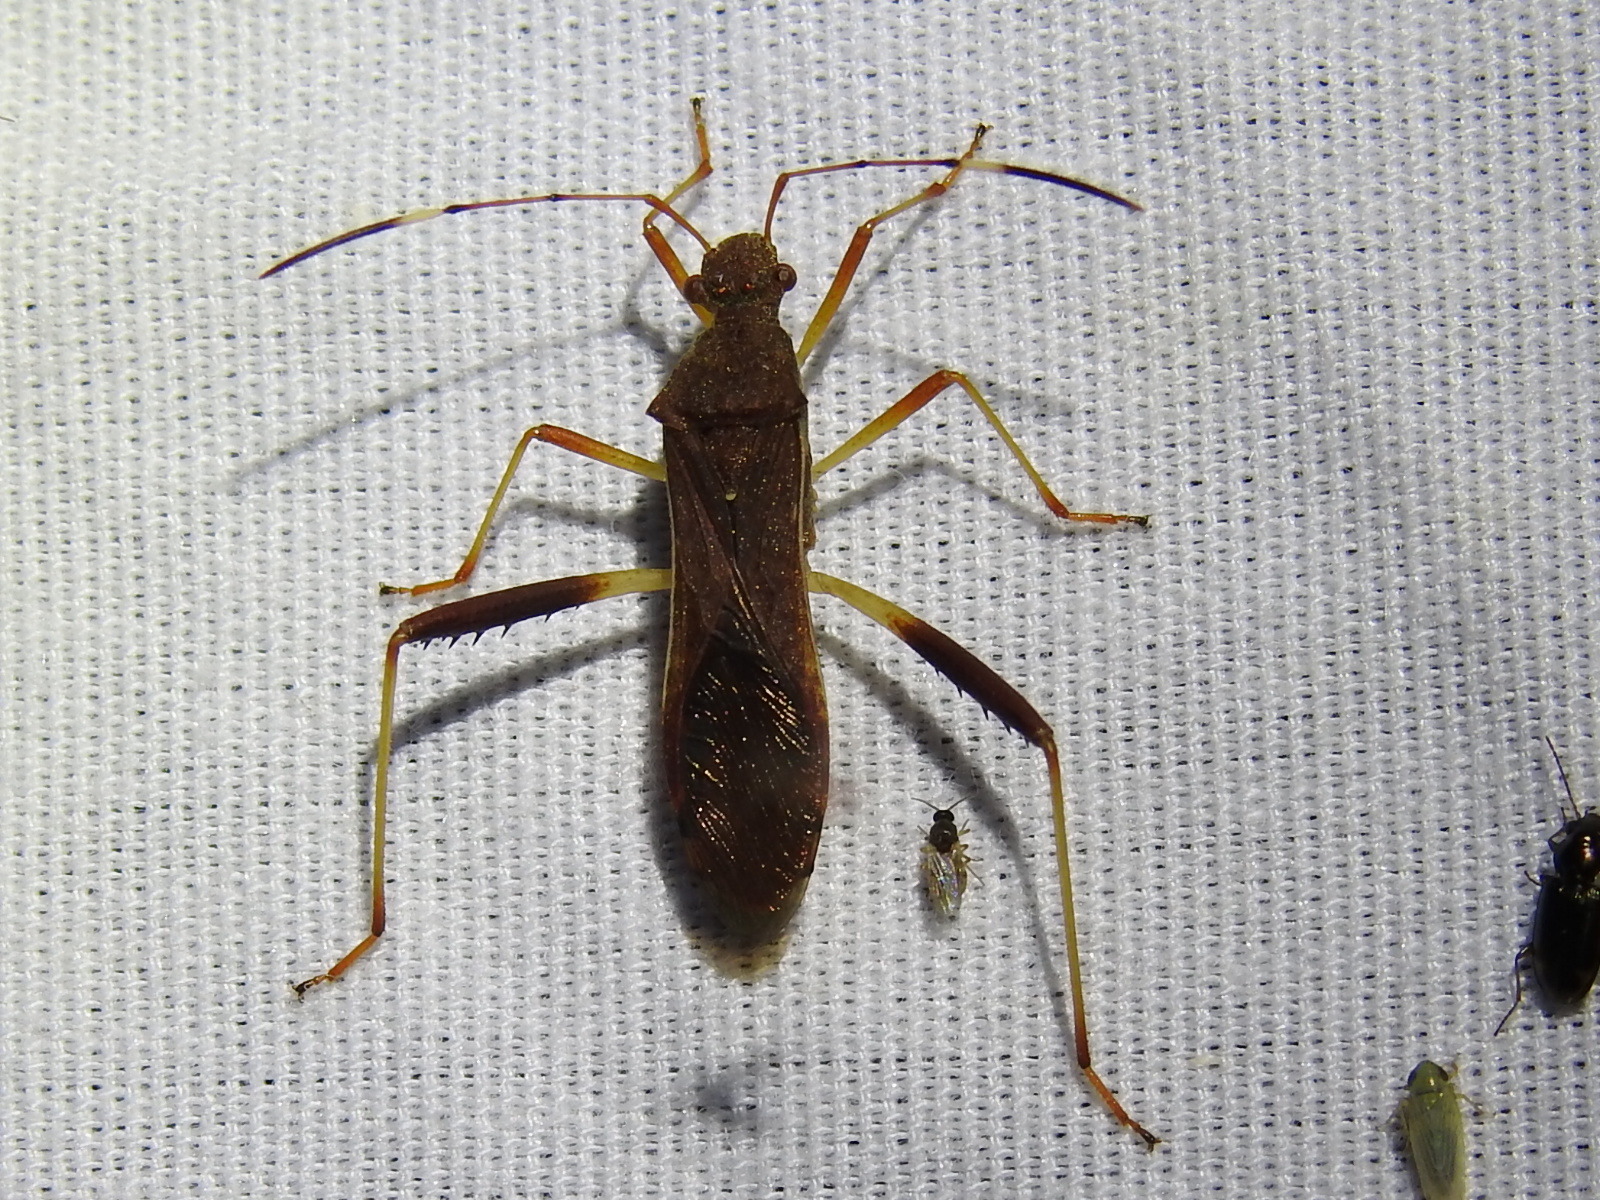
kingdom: Animalia
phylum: Arthropoda
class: Insecta
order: Hemiptera
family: Alydidae
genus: Megalotomus
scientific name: Megalotomus quinquespinosus
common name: Lupine bug
